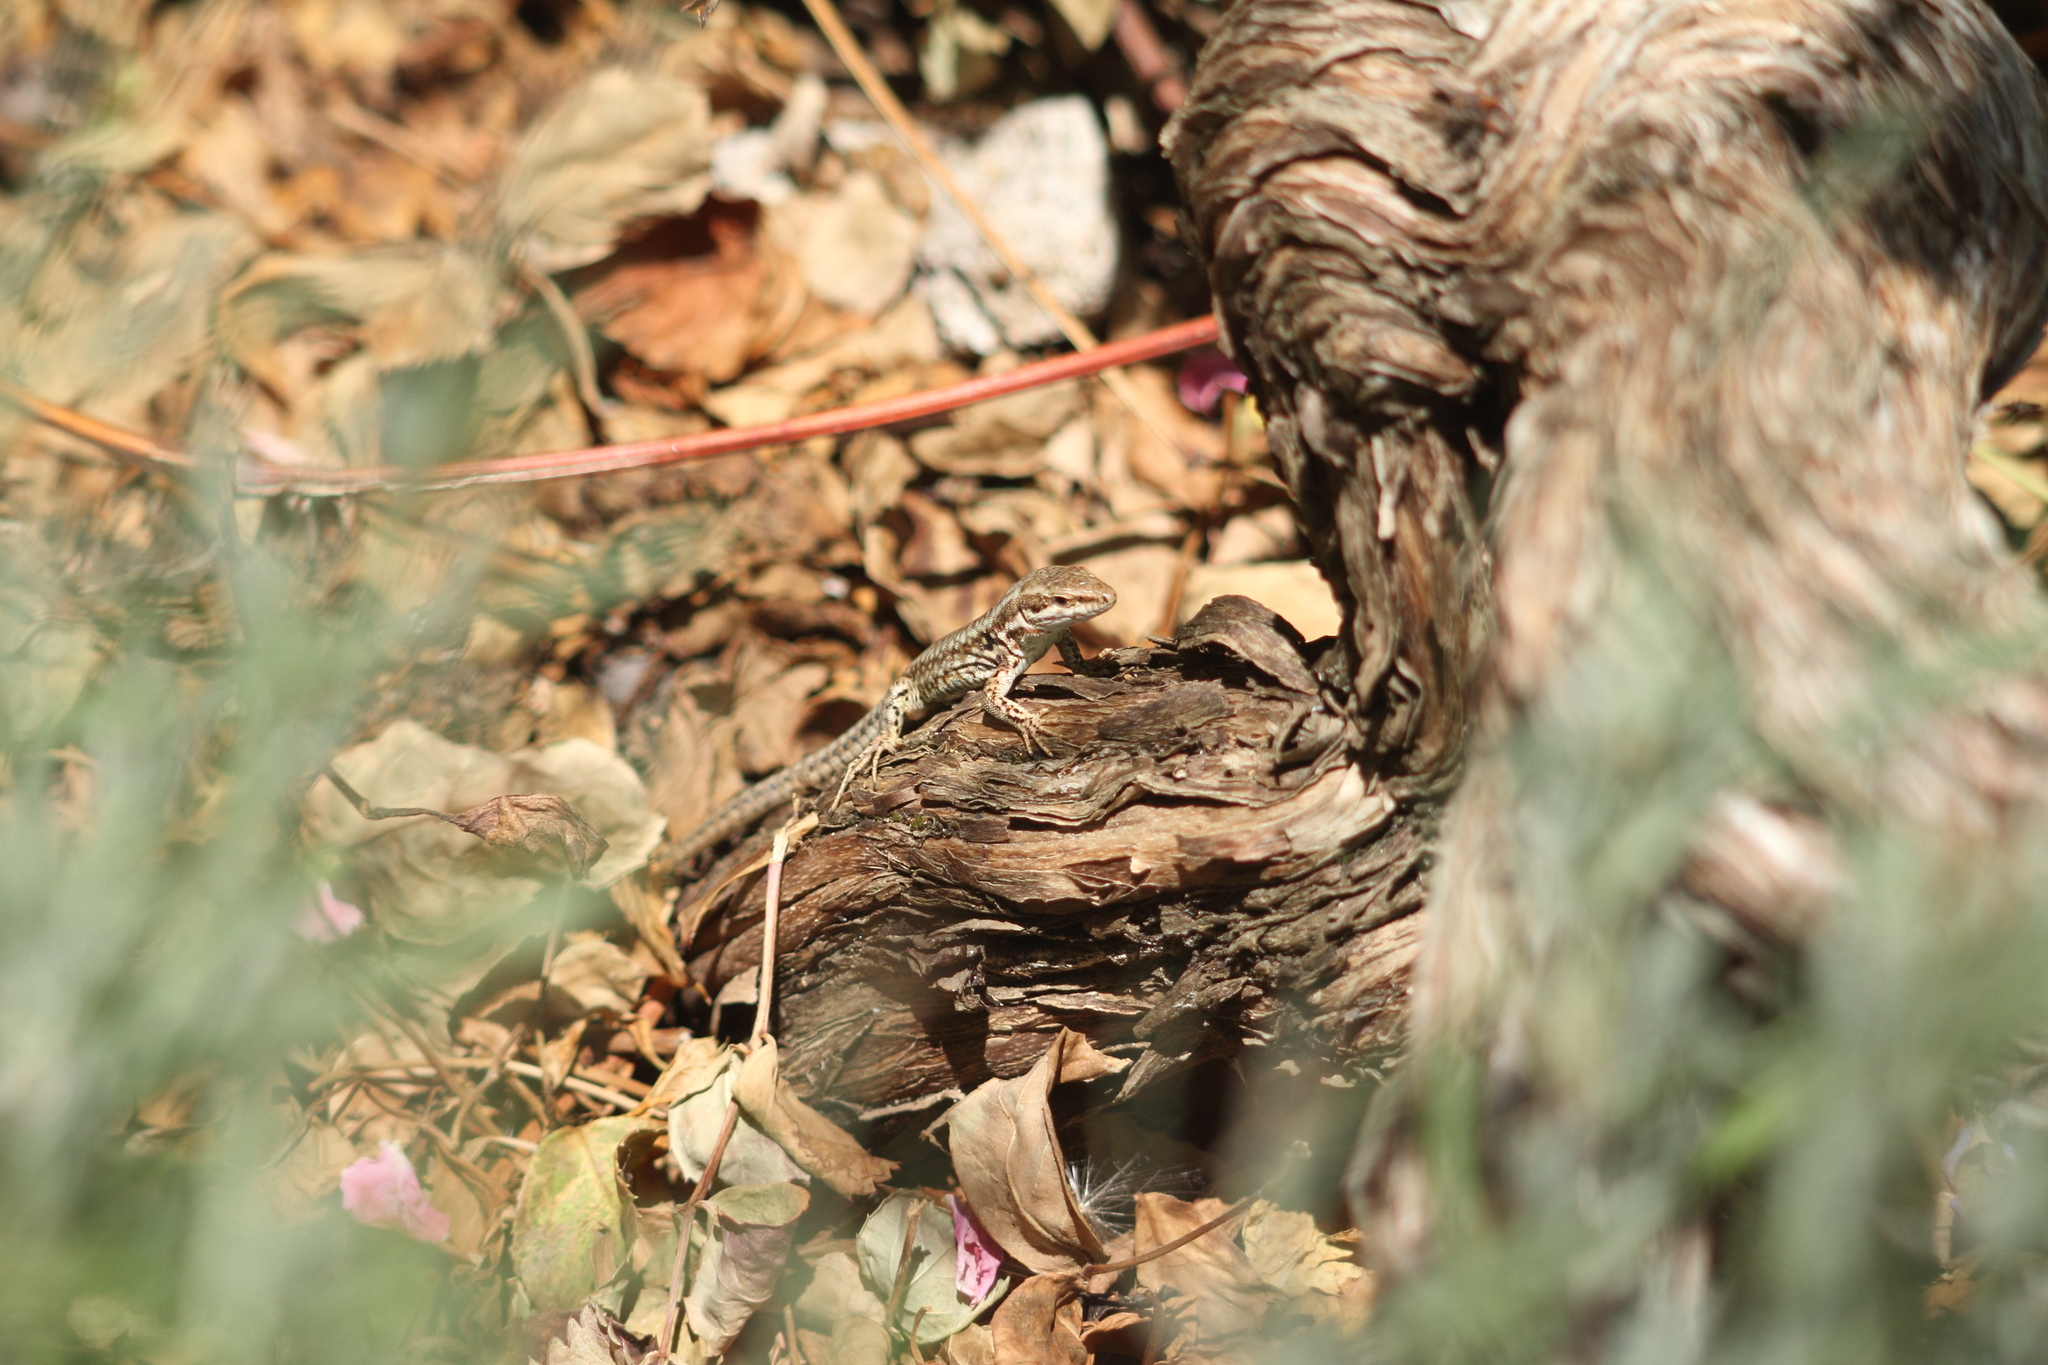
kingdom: Animalia
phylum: Chordata
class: Squamata
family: Lacertidae
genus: Podarcis
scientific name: Podarcis muralis
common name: Common wall lizard
